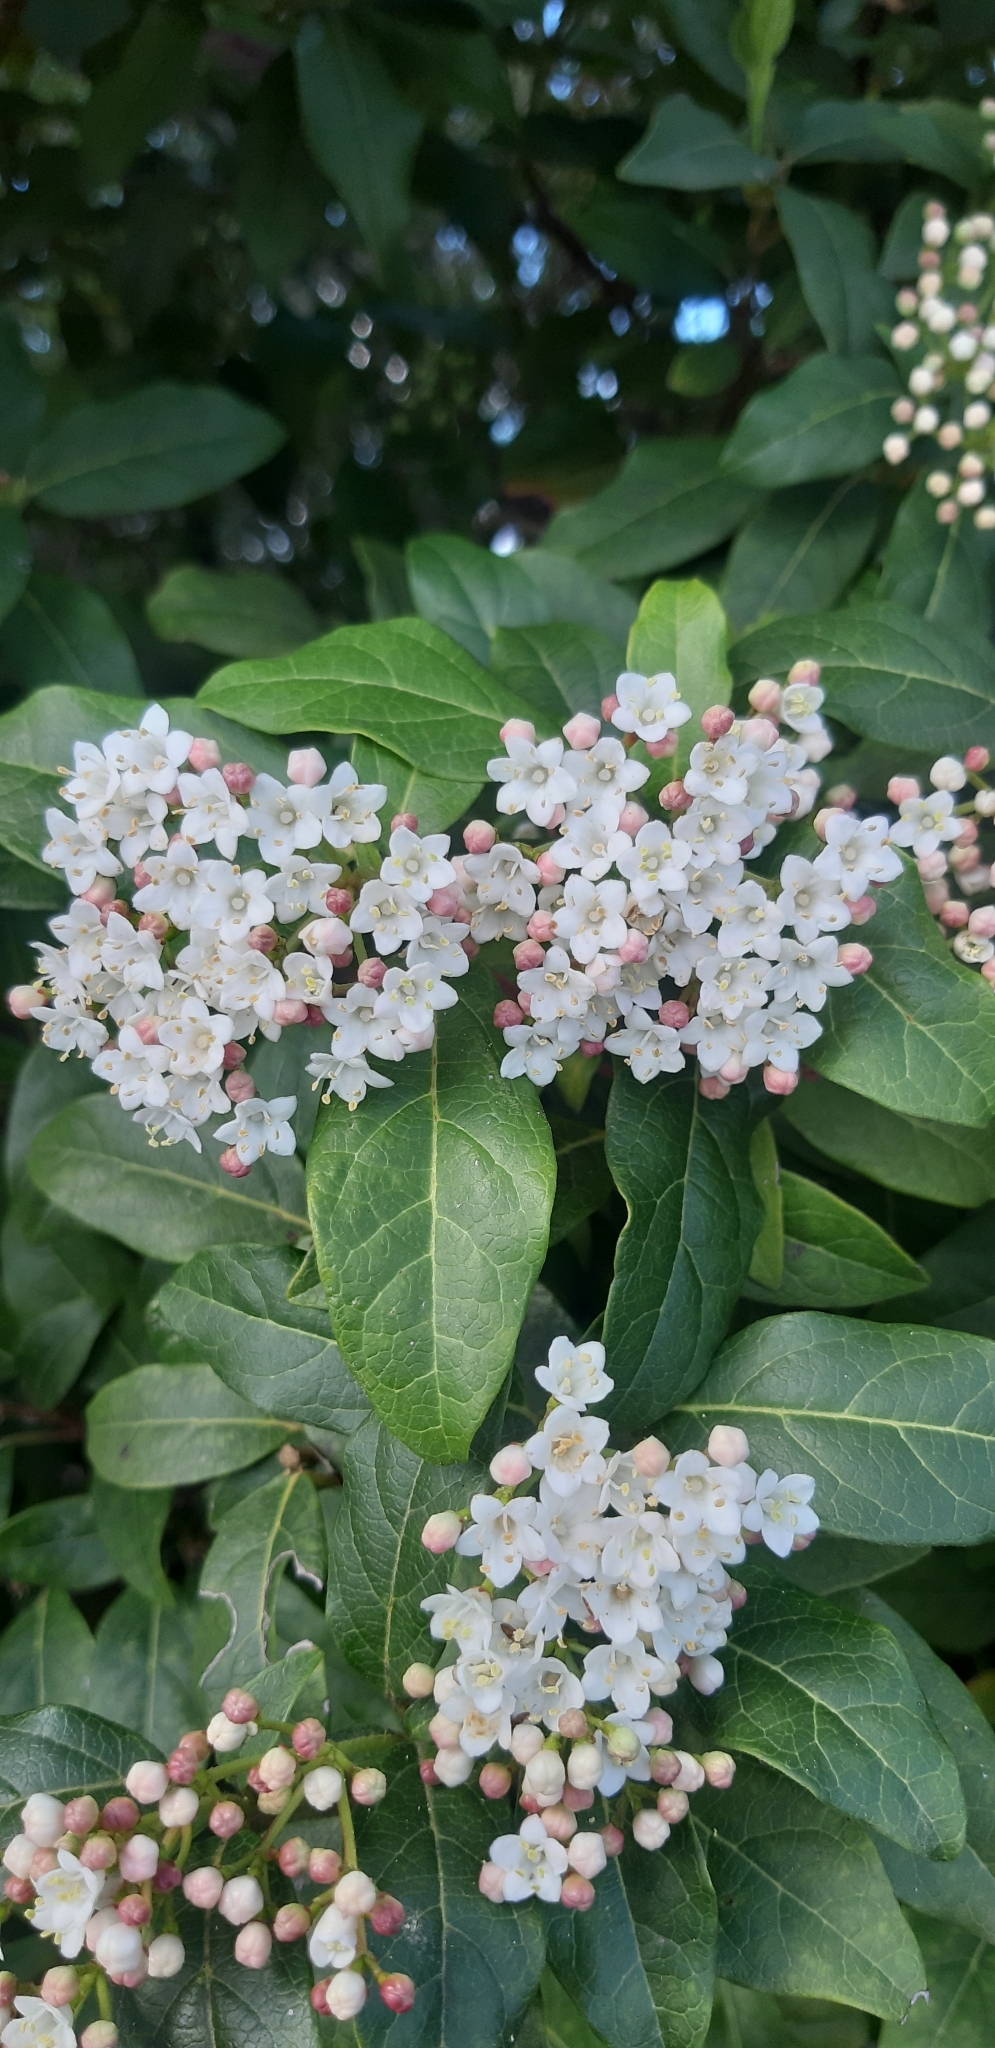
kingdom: Plantae
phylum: Tracheophyta
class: Magnoliopsida
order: Dipsacales
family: Viburnaceae
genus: Viburnum
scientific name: Viburnum tinus
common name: Laurustinus
